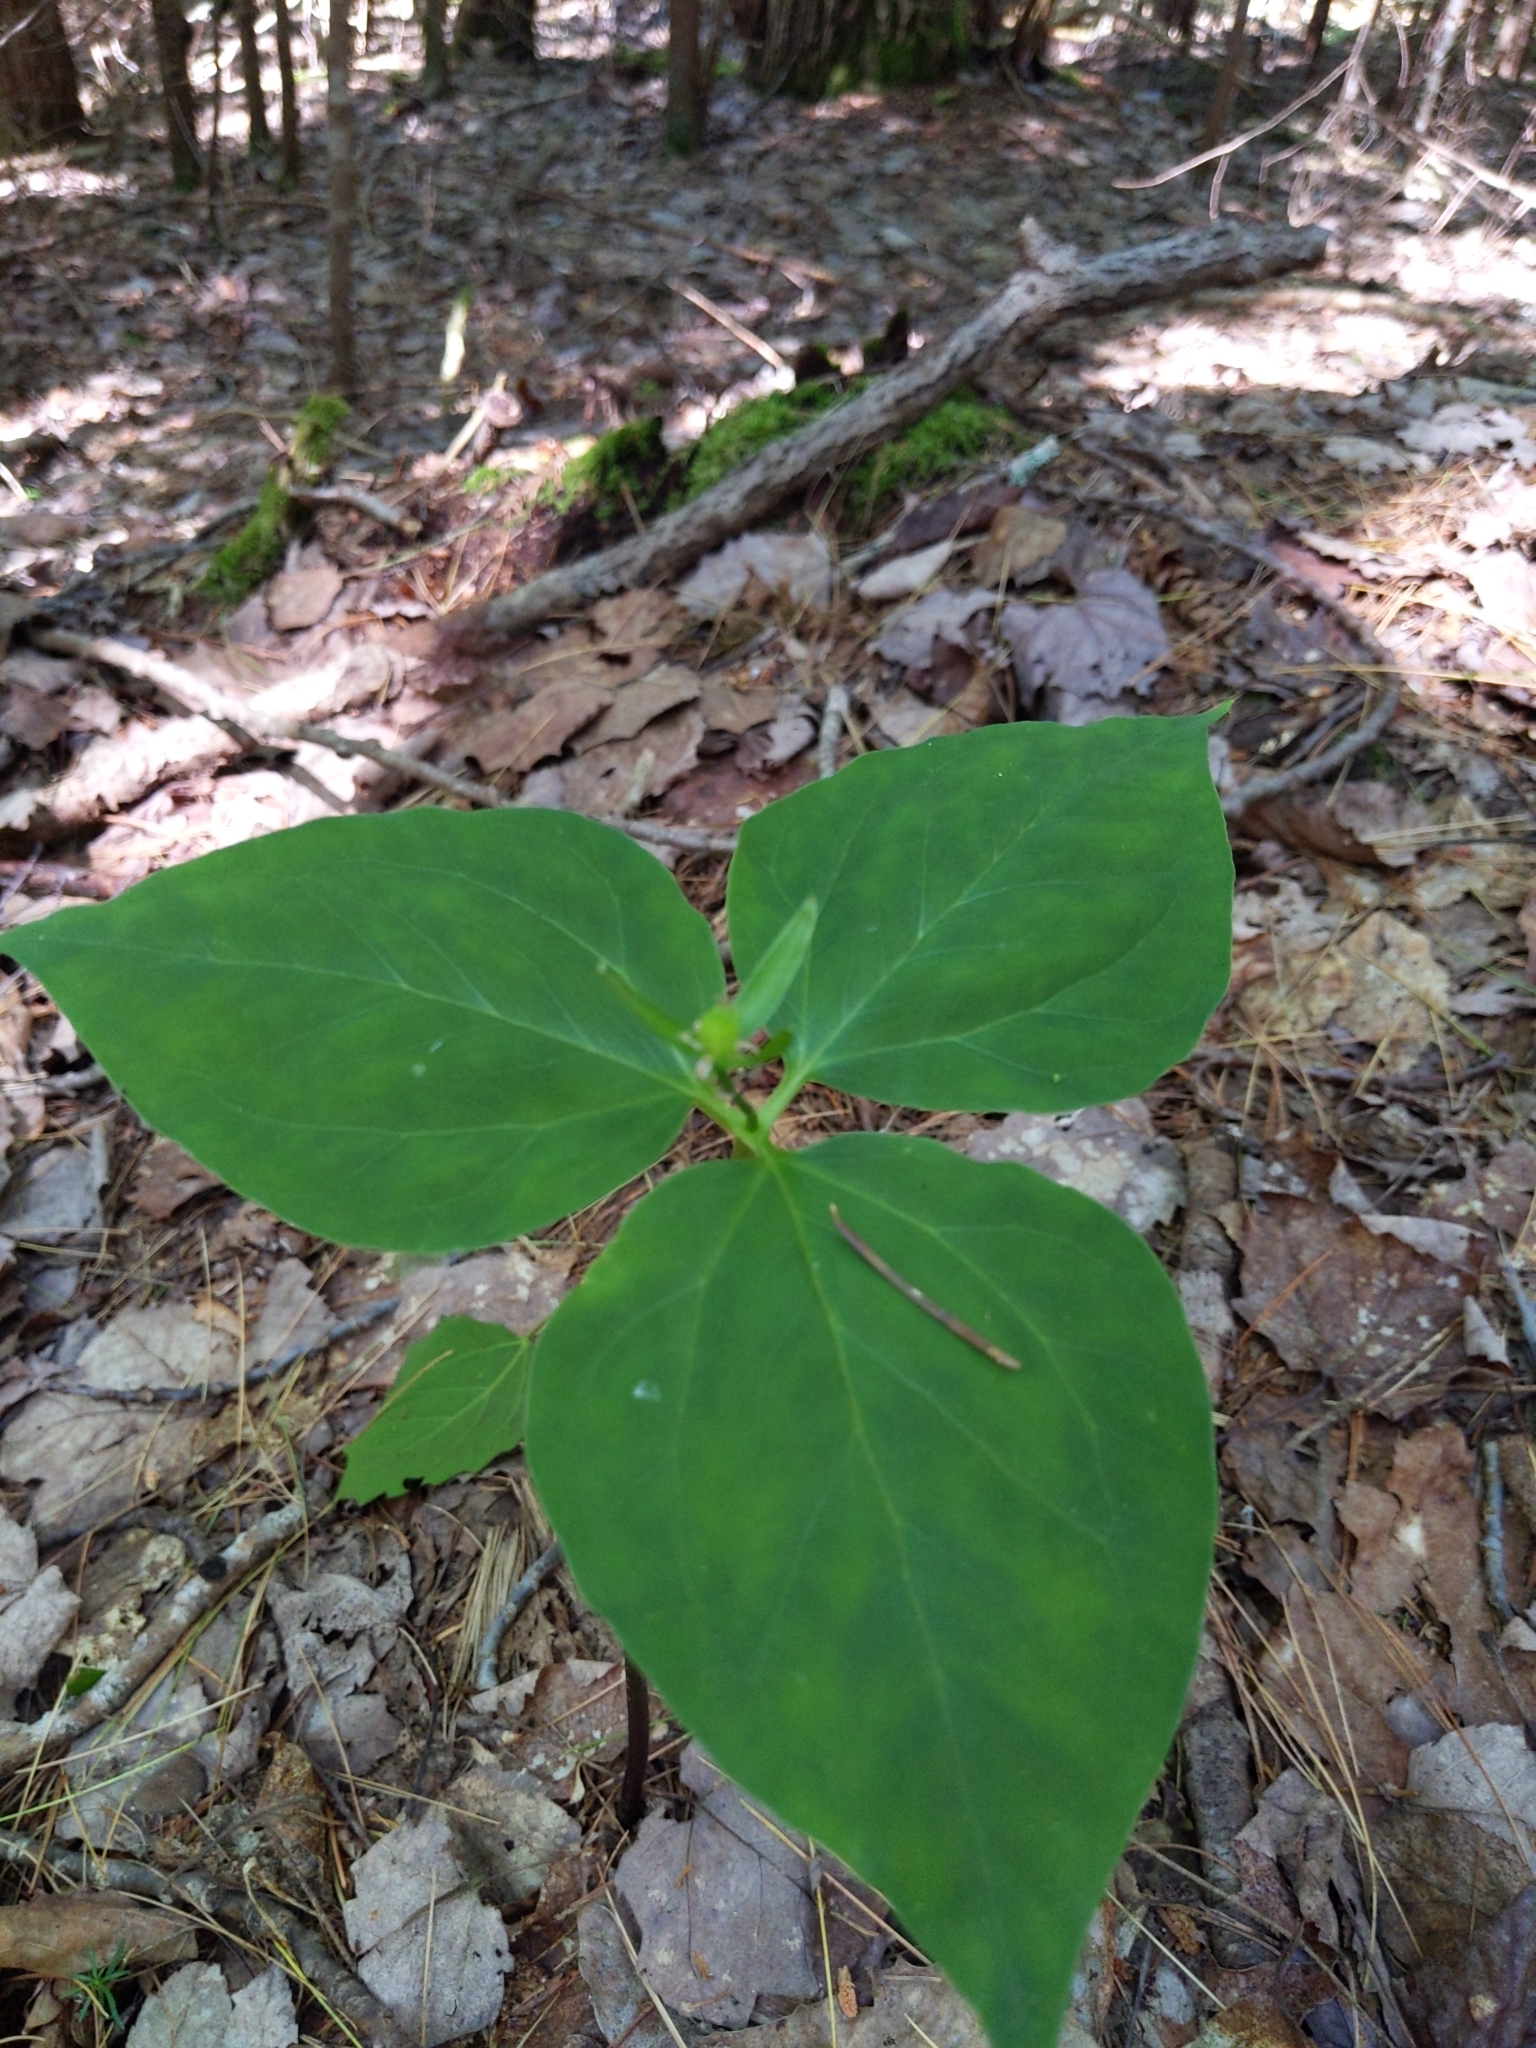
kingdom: Plantae
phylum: Tracheophyta
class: Liliopsida
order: Liliales
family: Melanthiaceae
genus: Trillium
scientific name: Trillium undulatum
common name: Paint trillium
